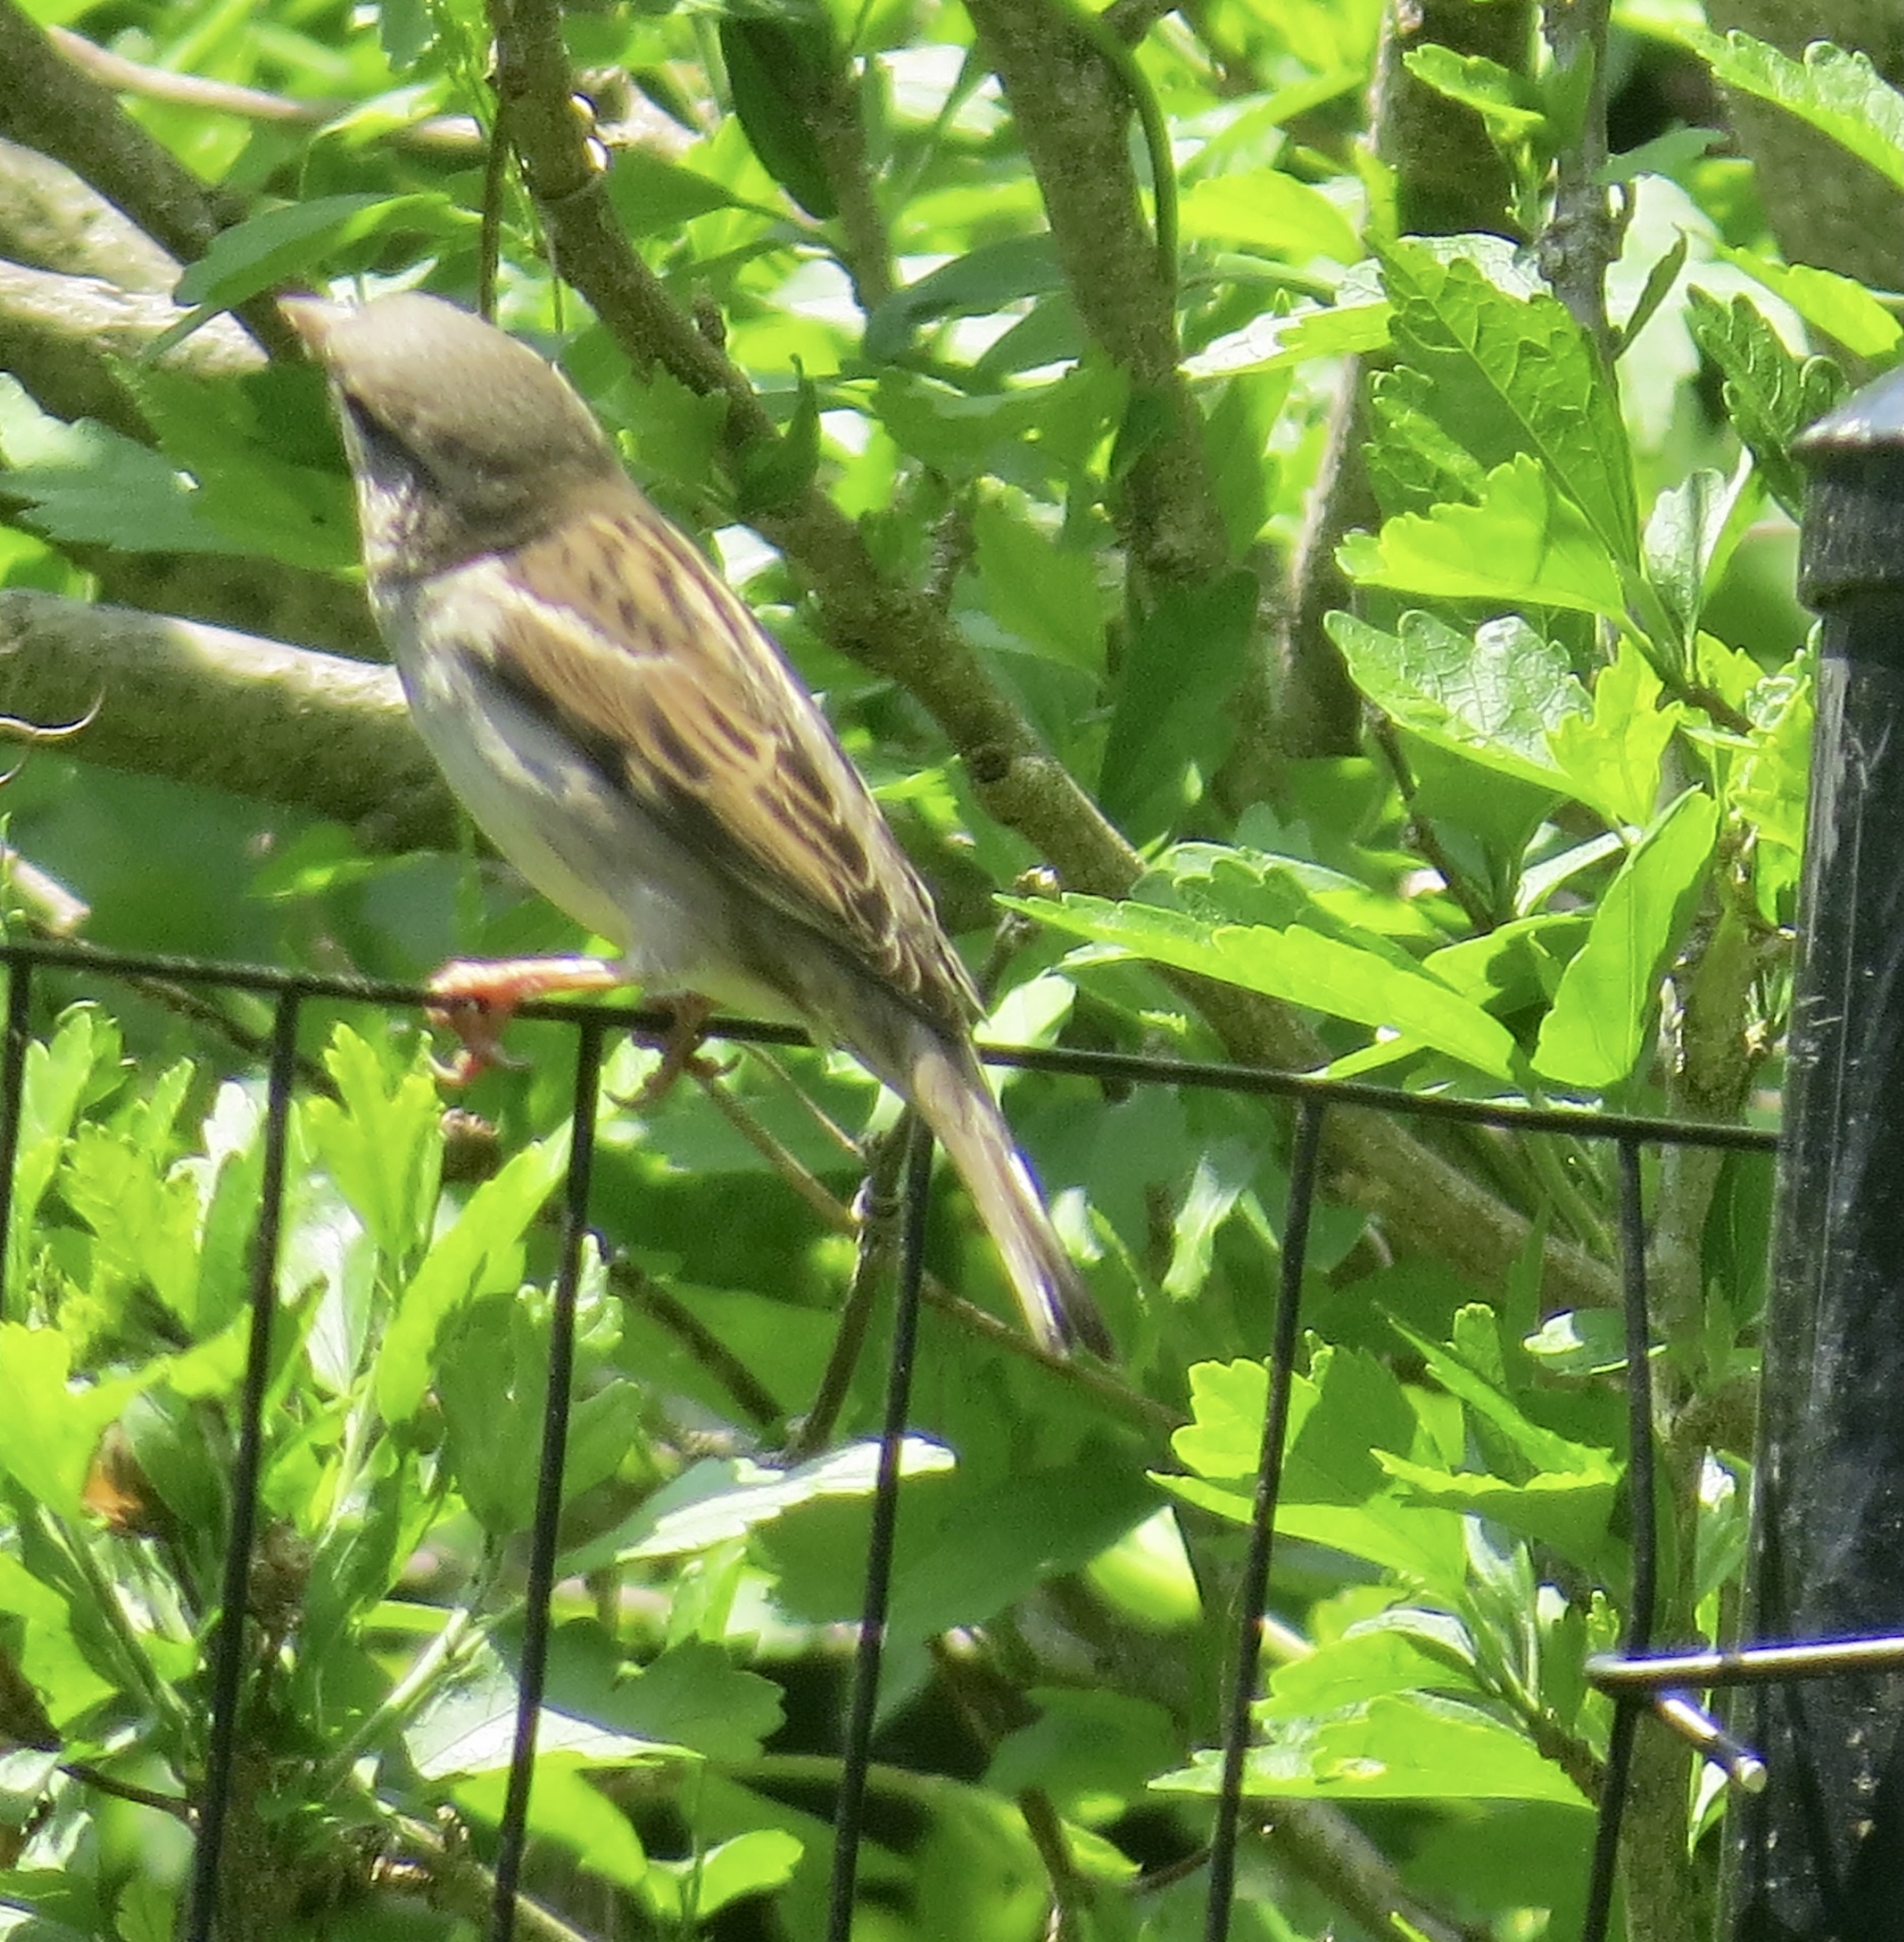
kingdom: Animalia
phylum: Chordata
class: Aves
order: Passeriformes
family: Passeridae
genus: Passer
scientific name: Passer domesticus
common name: House sparrow
